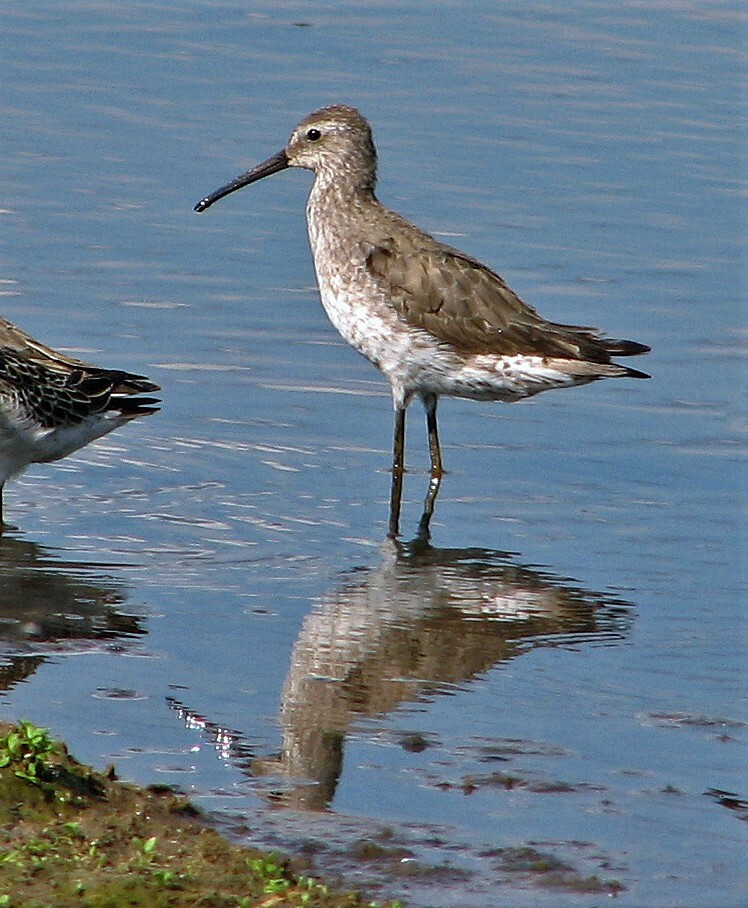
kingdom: Animalia
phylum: Chordata
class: Aves
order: Charadriiformes
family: Scolopacidae
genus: Calidris
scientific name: Calidris himantopus
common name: Stilt sandpiper
